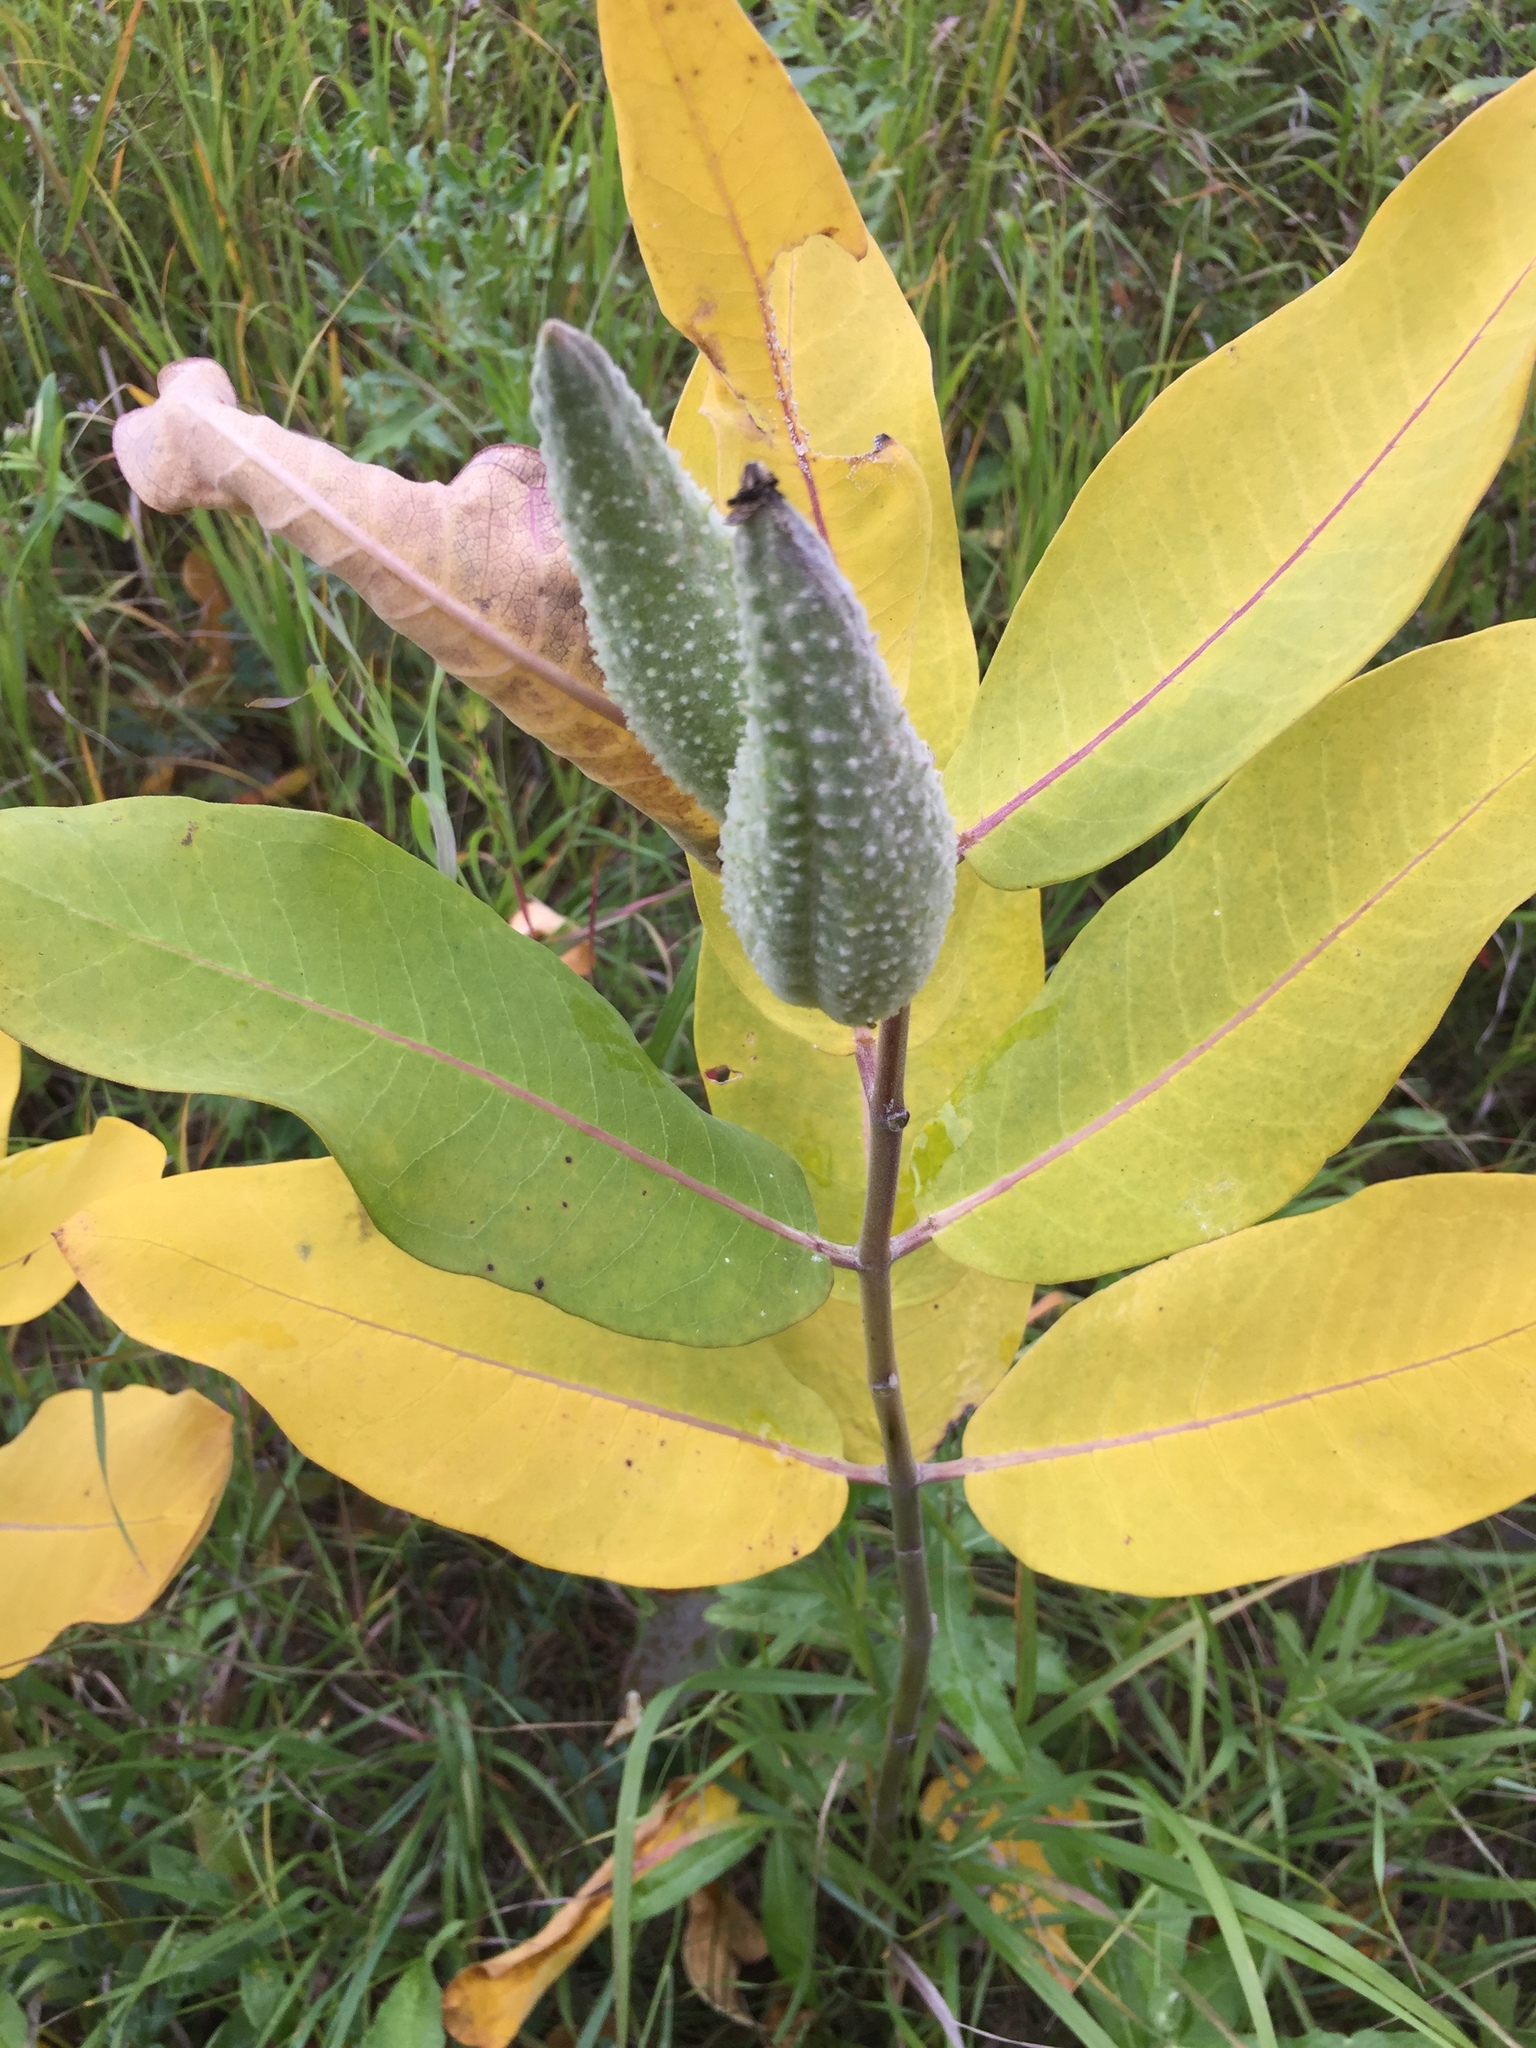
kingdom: Plantae
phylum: Tracheophyta
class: Magnoliopsida
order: Gentianales
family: Apocynaceae
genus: Asclepias
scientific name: Asclepias syriaca
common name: Common milkweed
